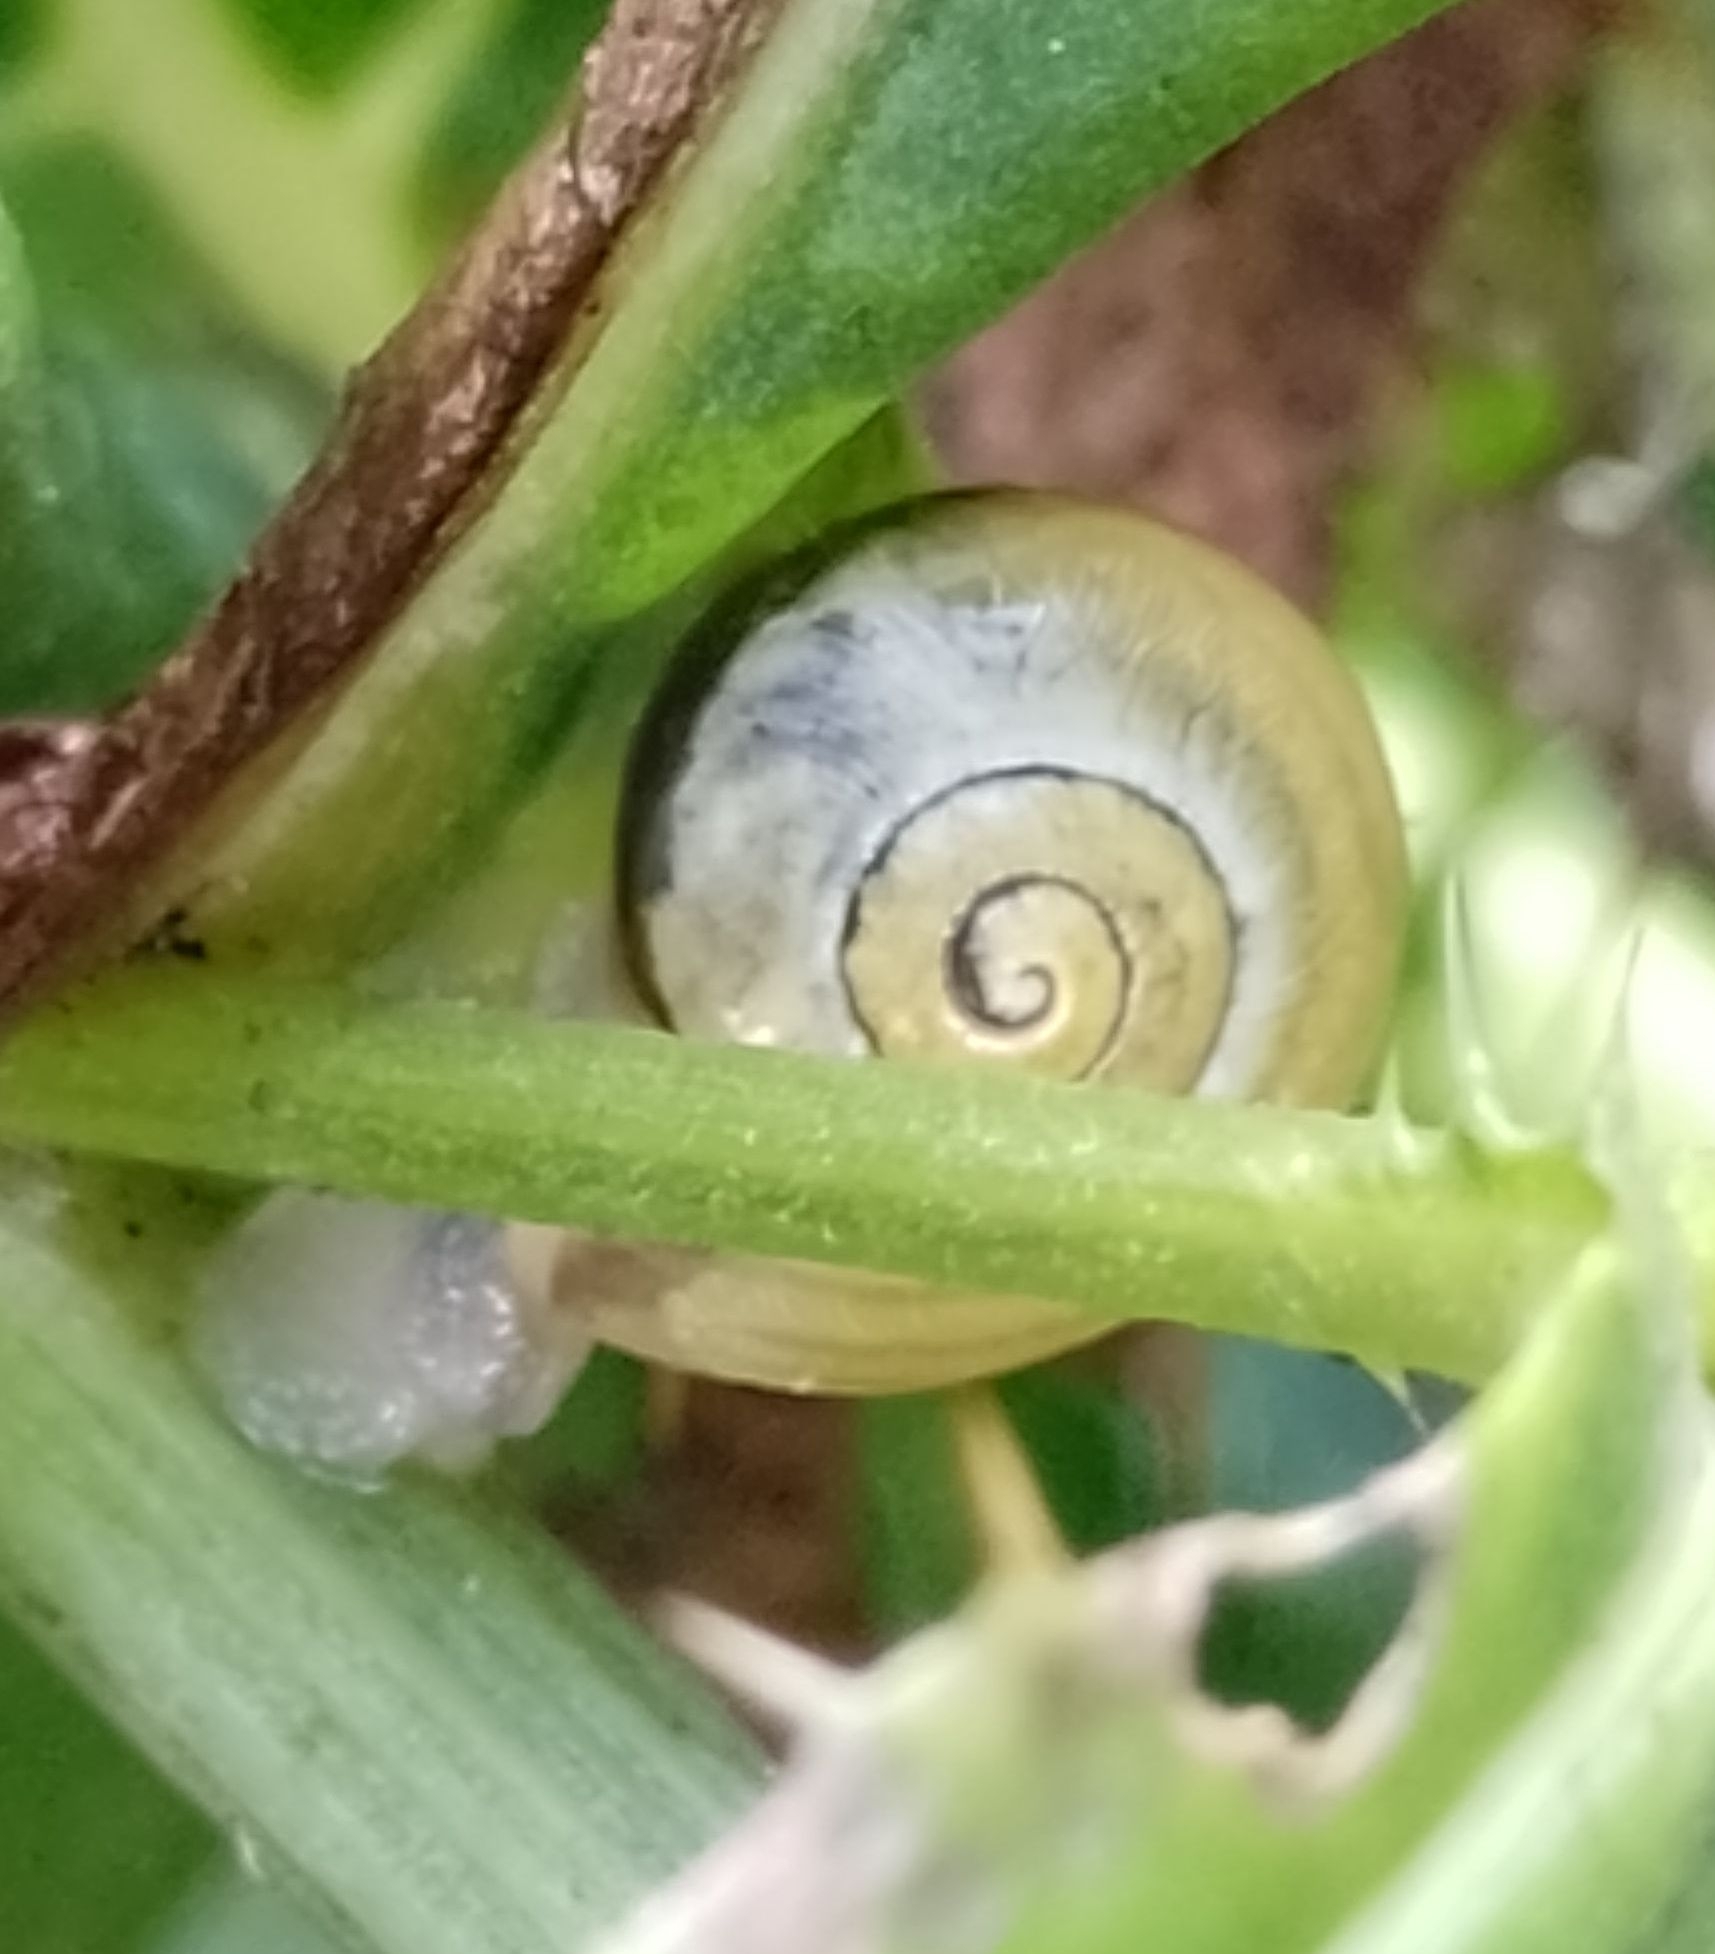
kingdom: Animalia
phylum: Mollusca
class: Gastropoda
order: Stylommatophora
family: Hygromiidae
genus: Monacha
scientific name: Monacha cantiana
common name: Kentish snail
